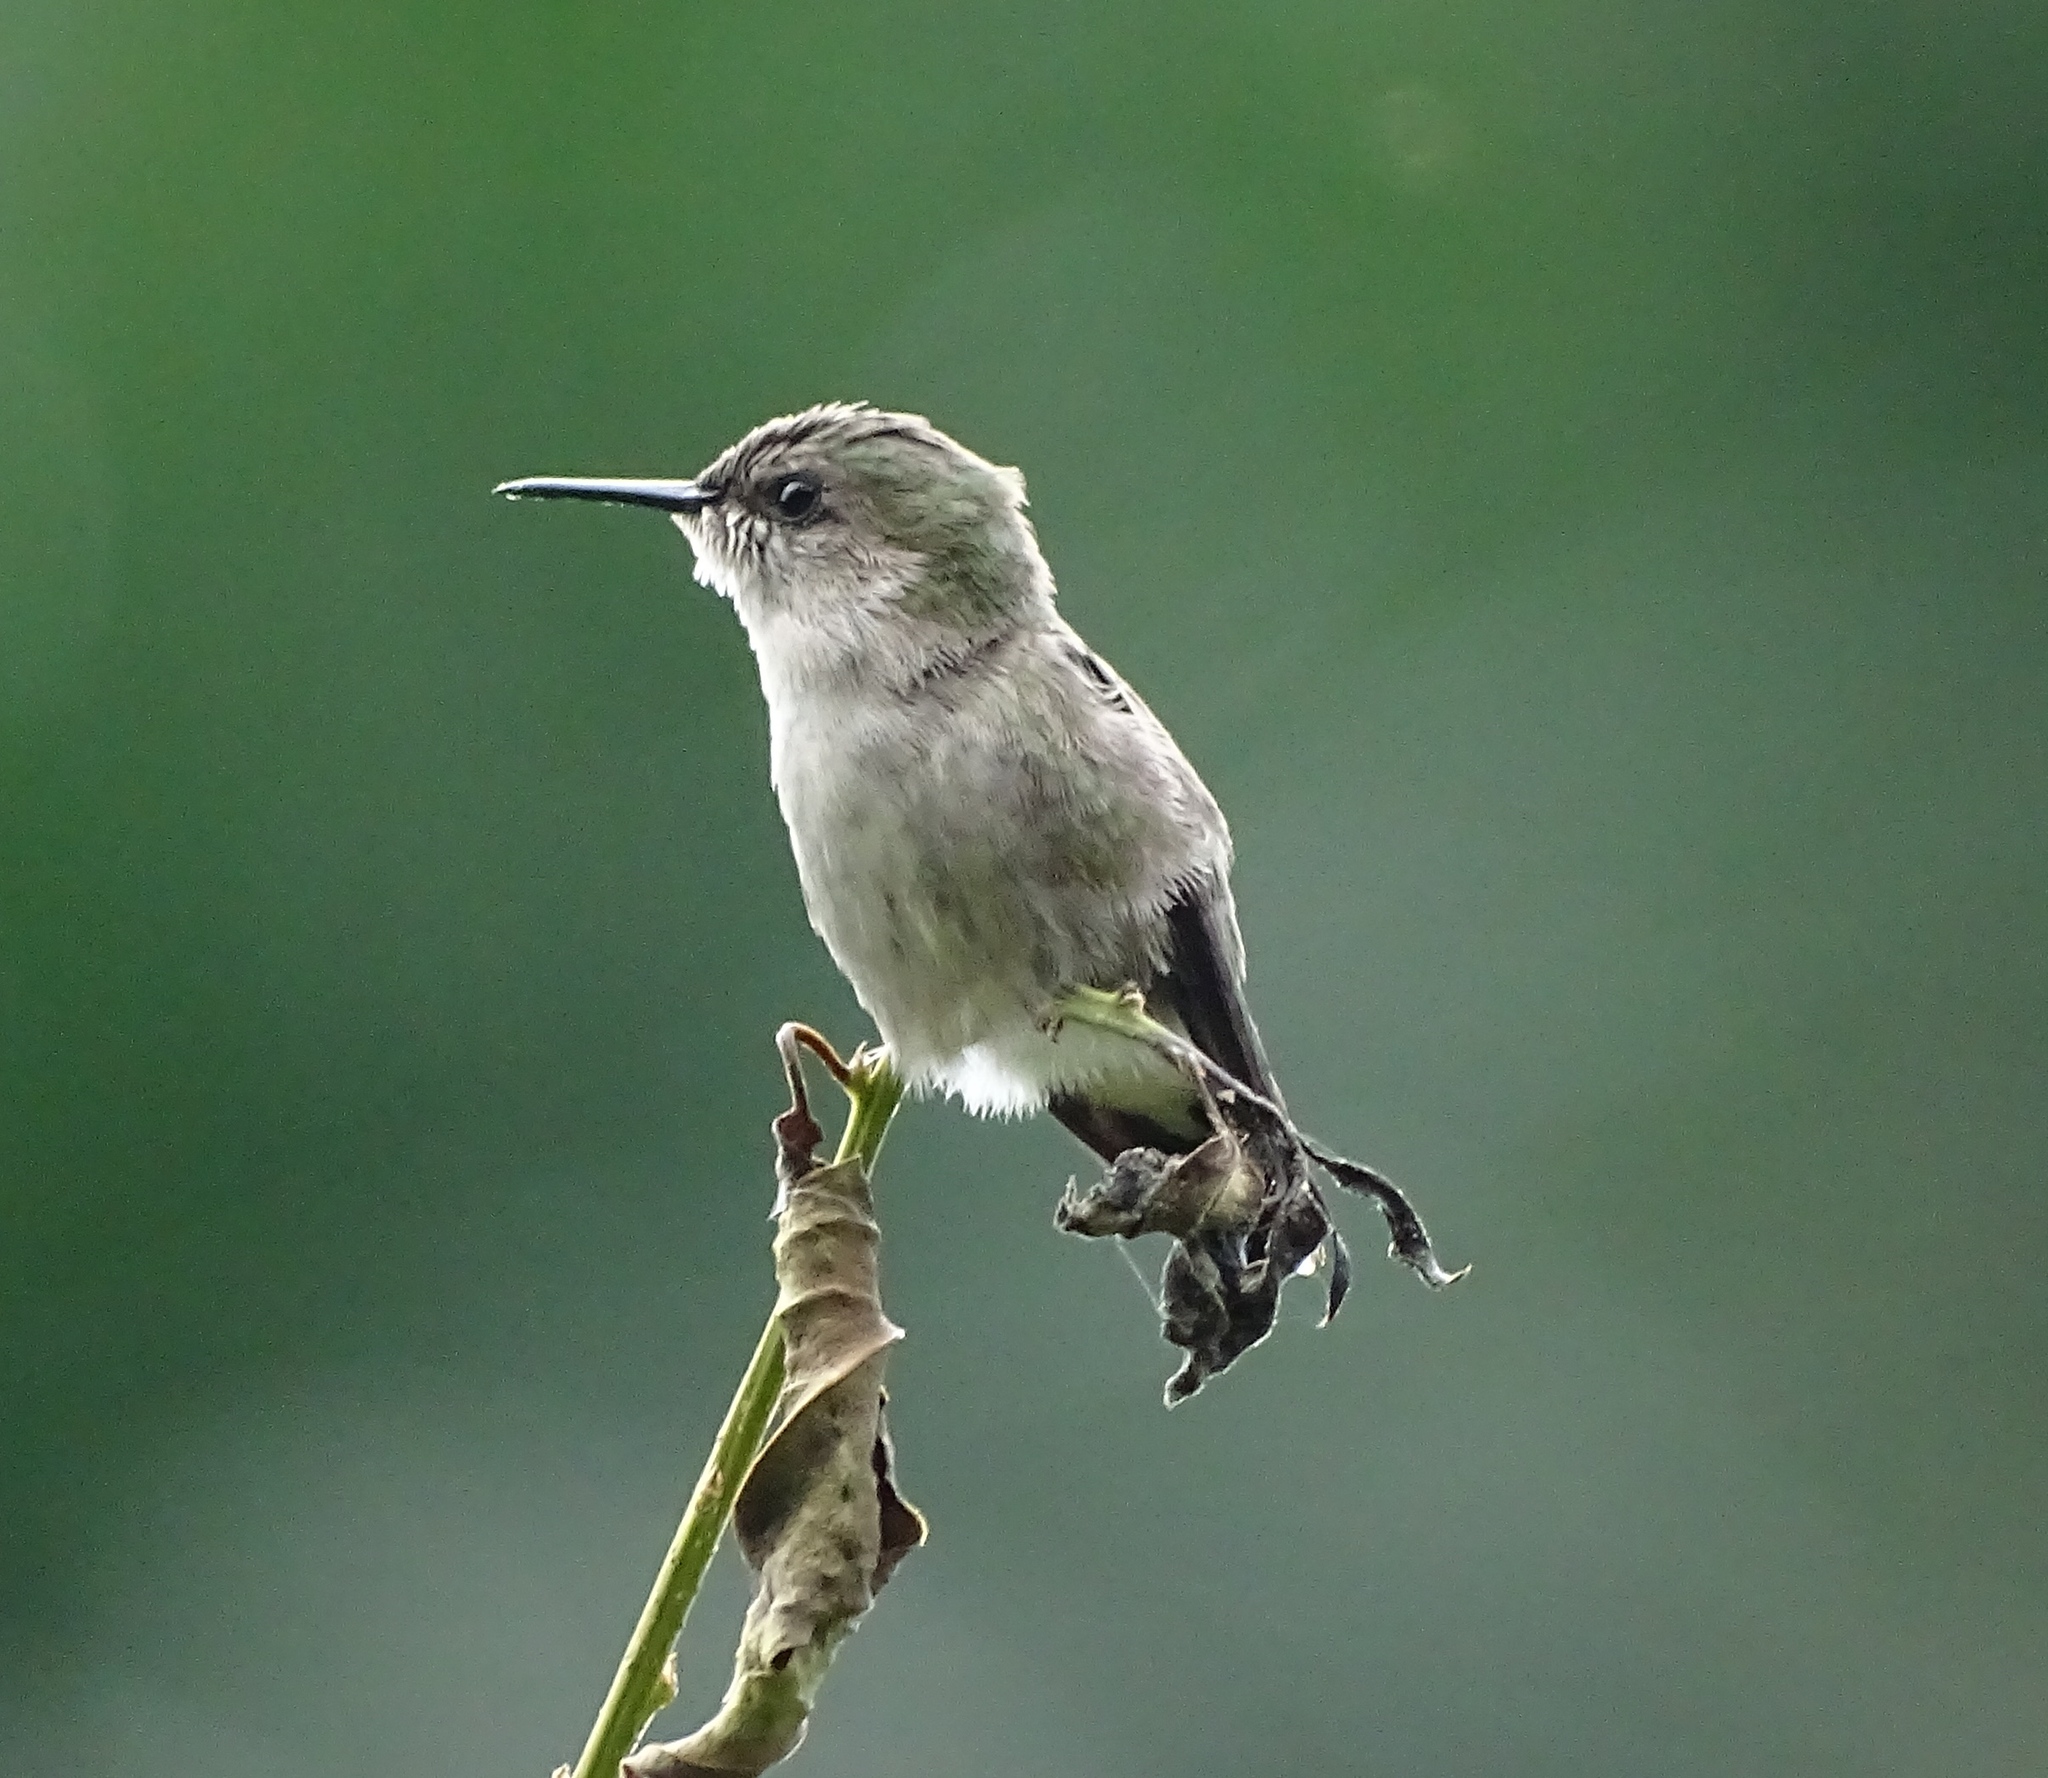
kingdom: Animalia
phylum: Chordata
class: Aves
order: Apodiformes
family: Trochilidae
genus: Mellisuga
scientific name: Mellisuga minima
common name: Vervain hummingbird
